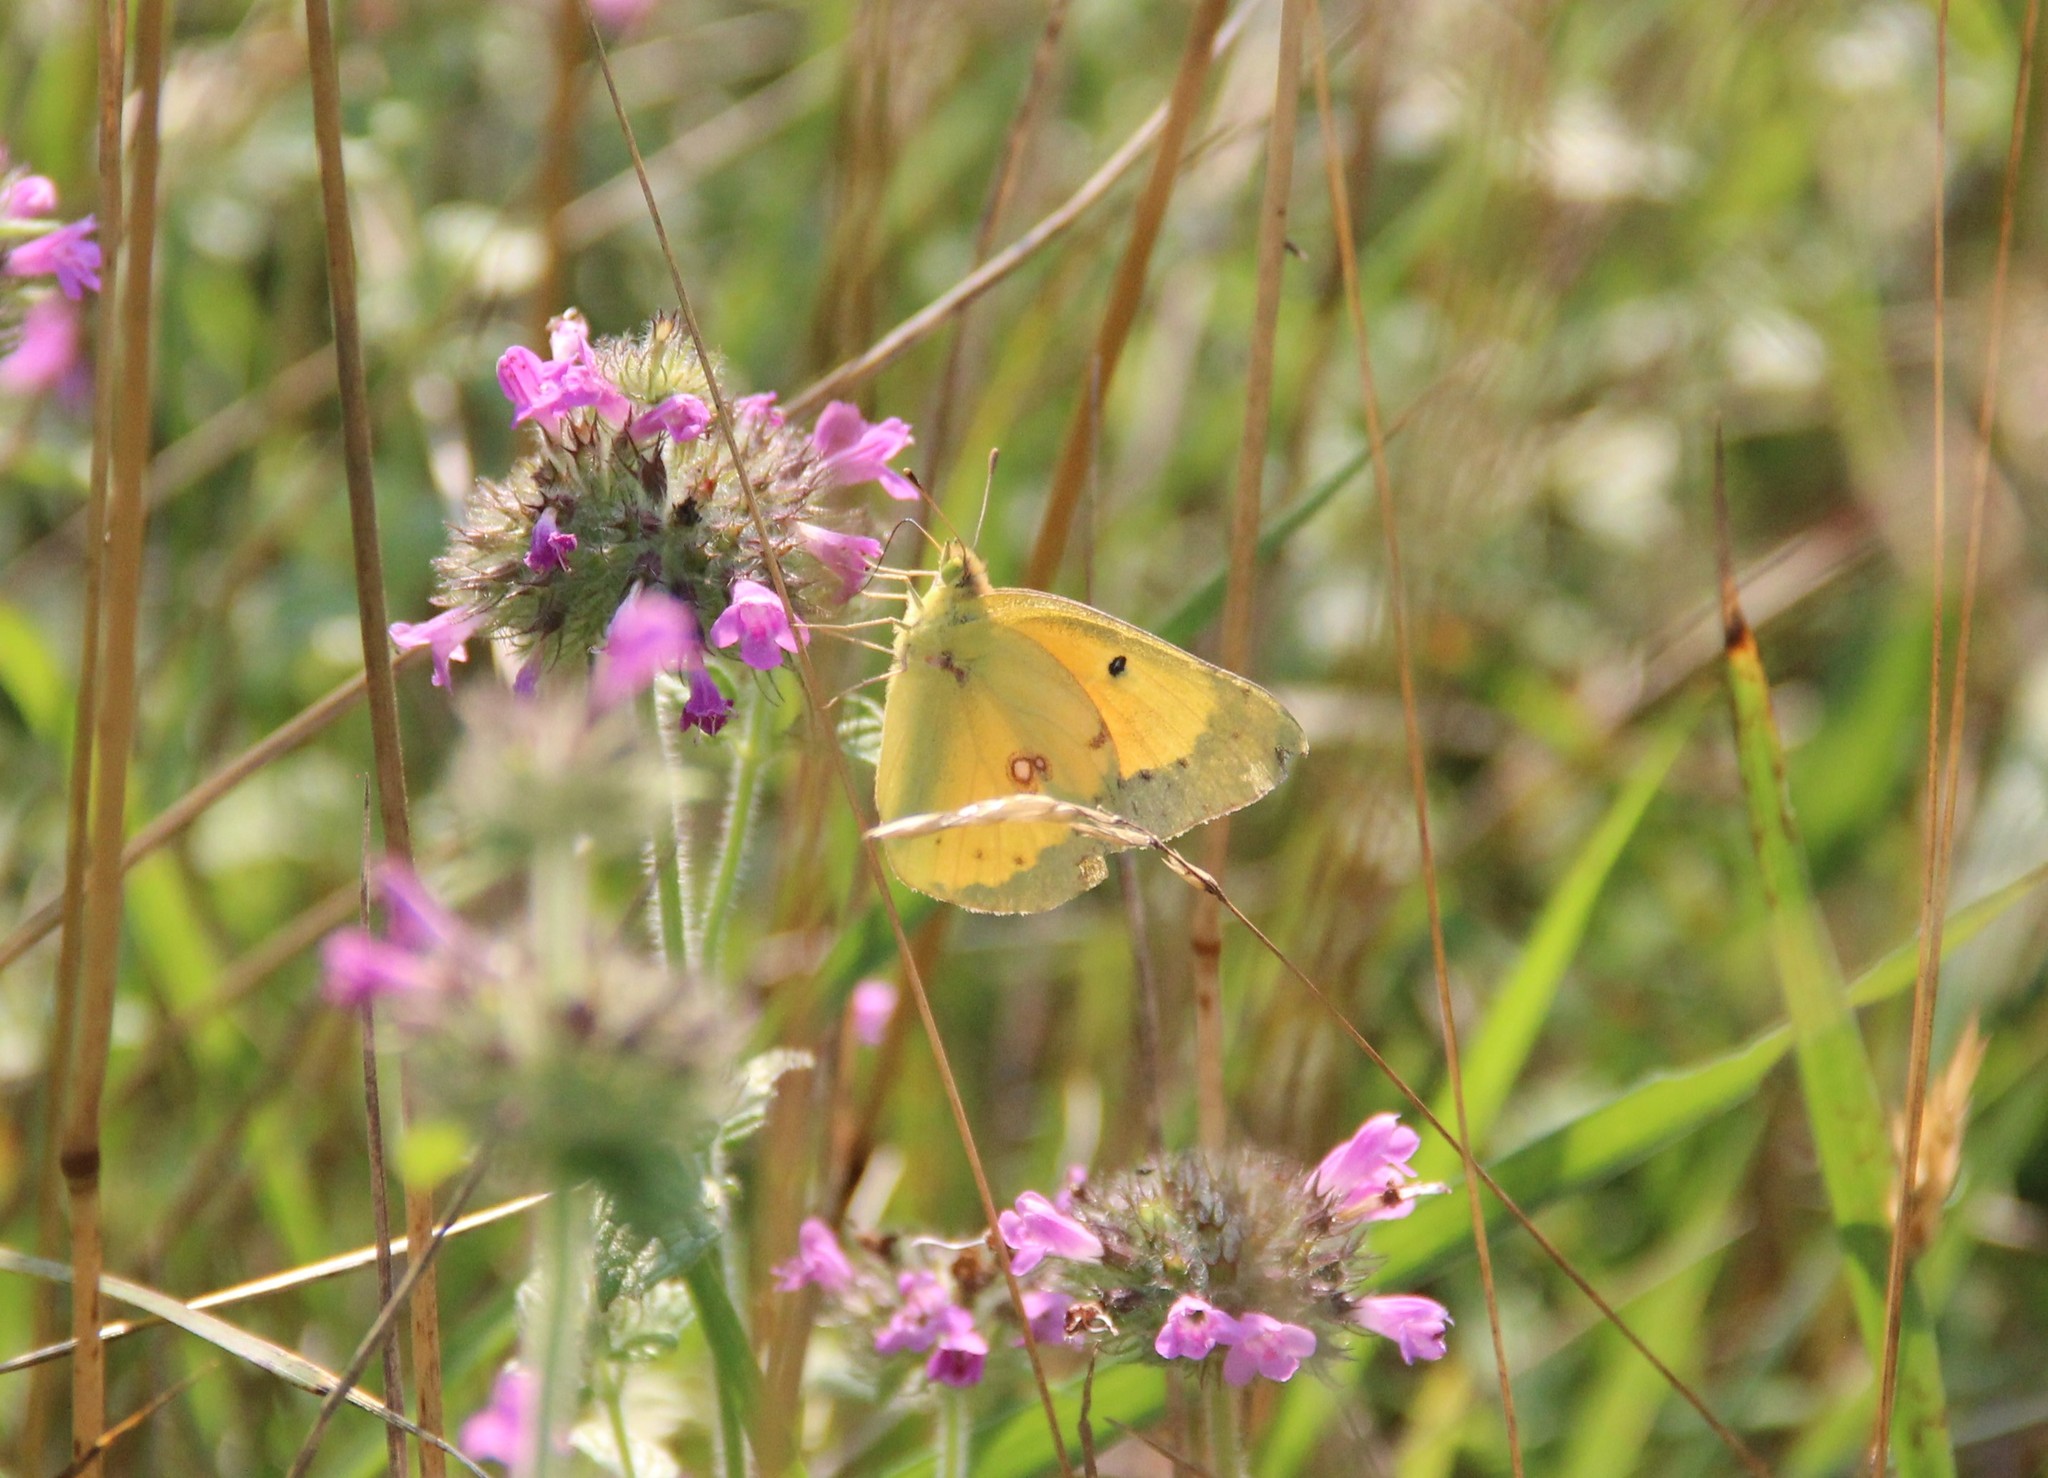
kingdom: Animalia
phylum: Arthropoda
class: Insecta
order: Lepidoptera
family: Pieridae
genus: Colias
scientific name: Colias eurytheme
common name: Alfalfa butterfly
